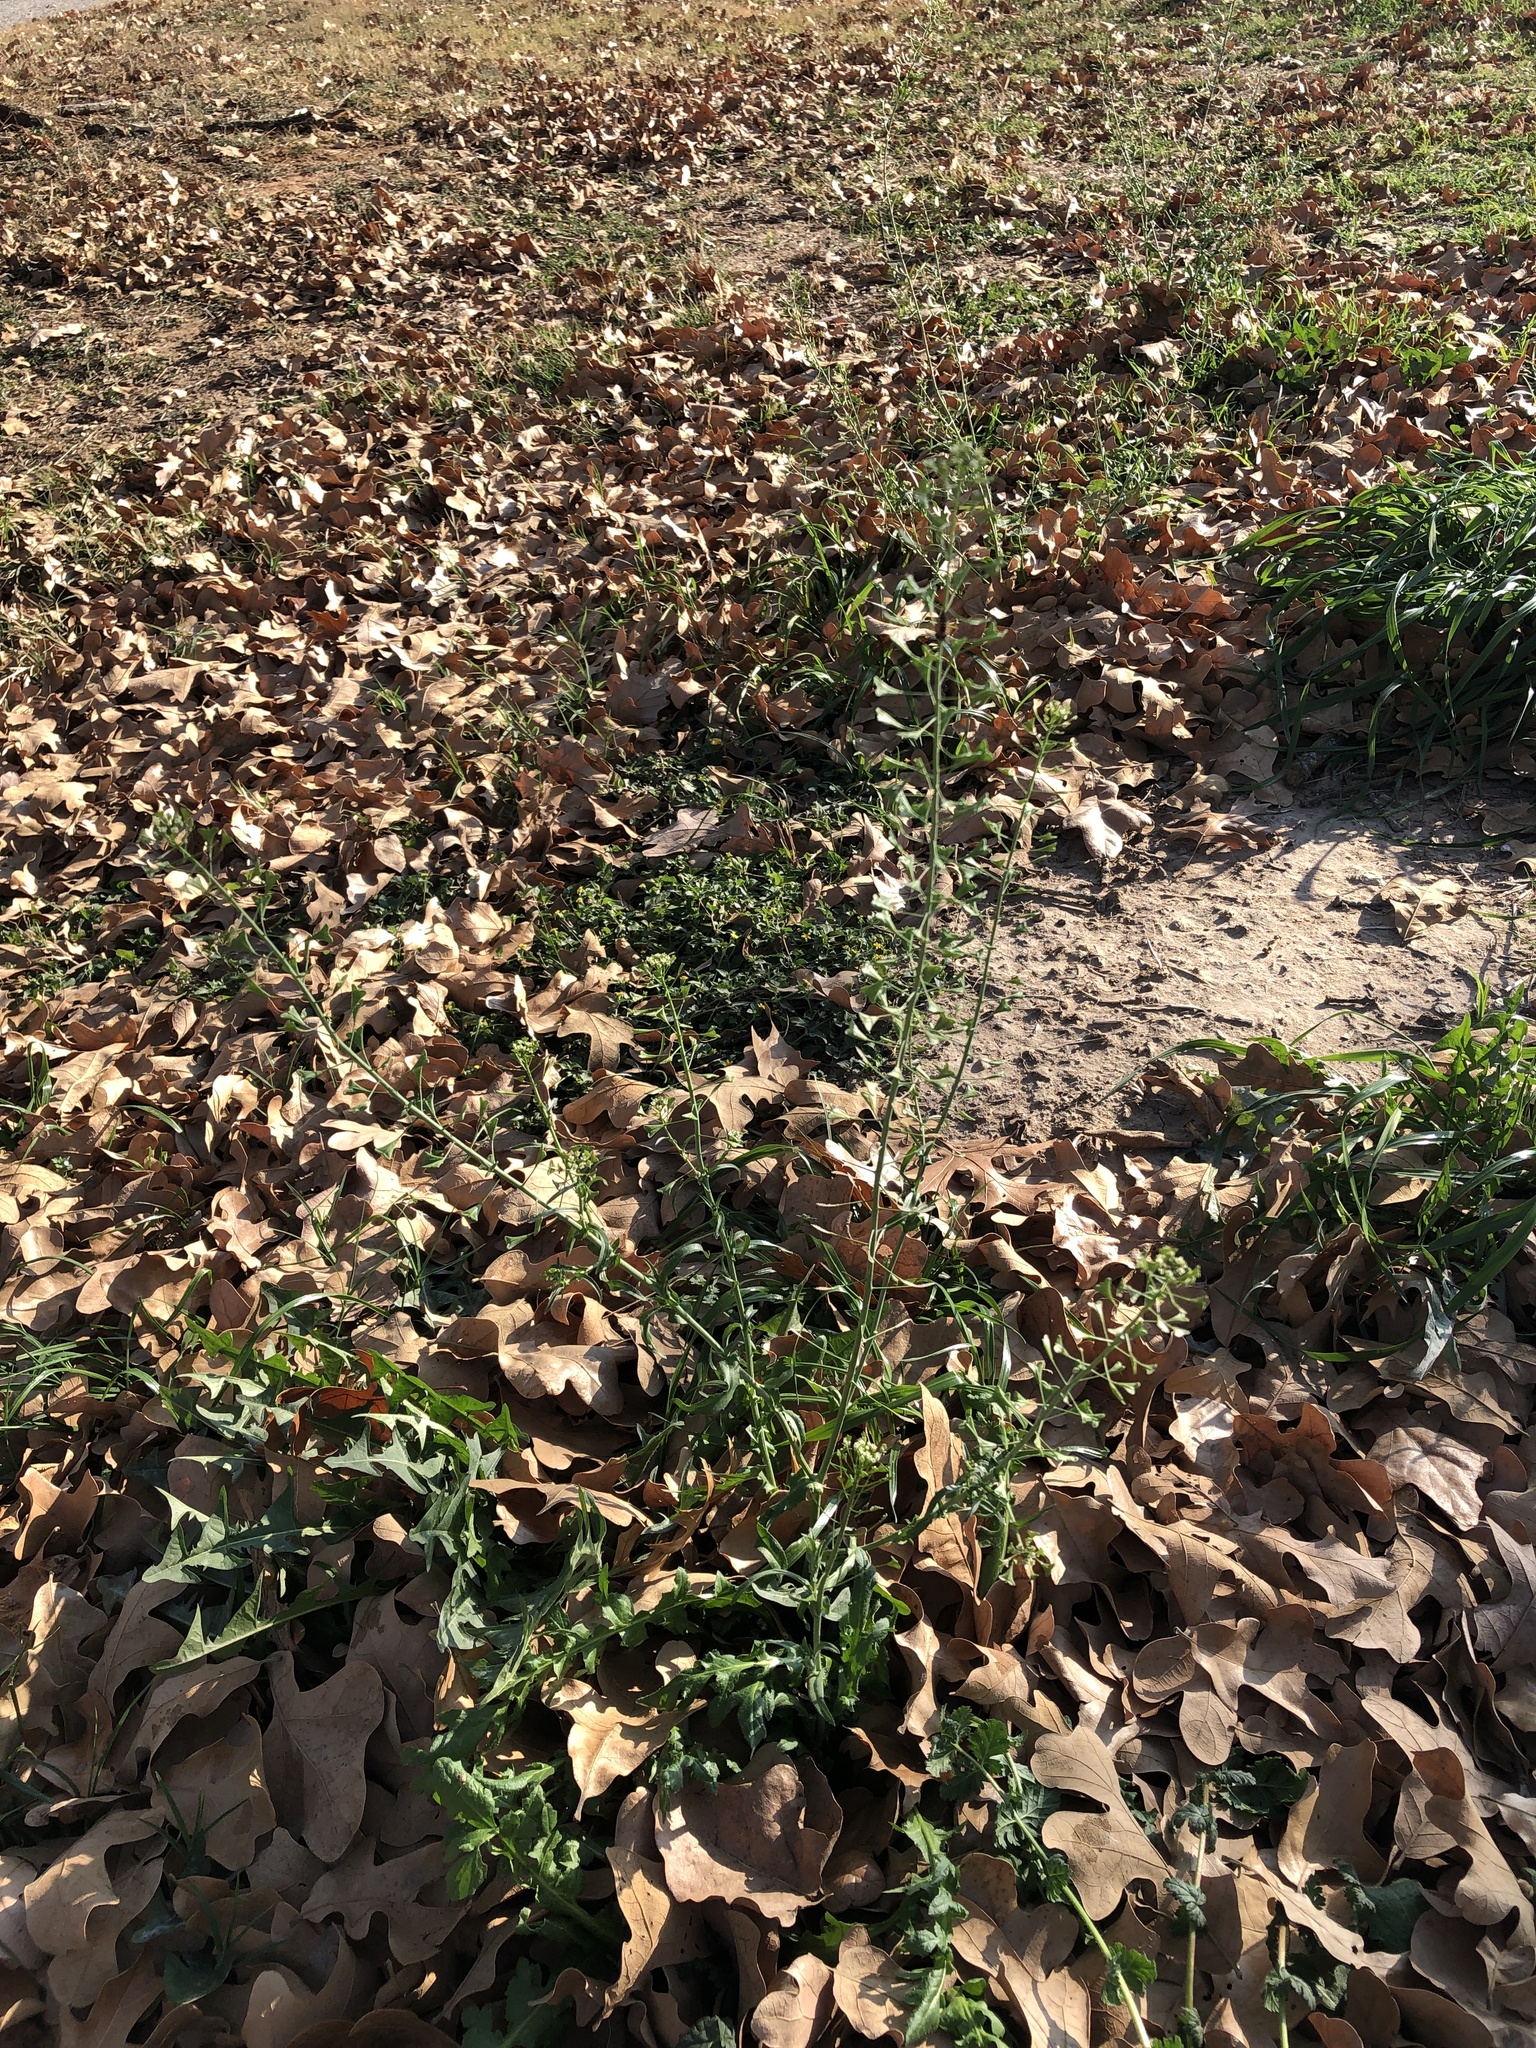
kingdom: Plantae
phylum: Tracheophyta
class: Magnoliopsida
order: Brassicales
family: Brassicaceae
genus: Capsella
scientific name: Capsella bursa-pastoris
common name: Shepherd's purse
